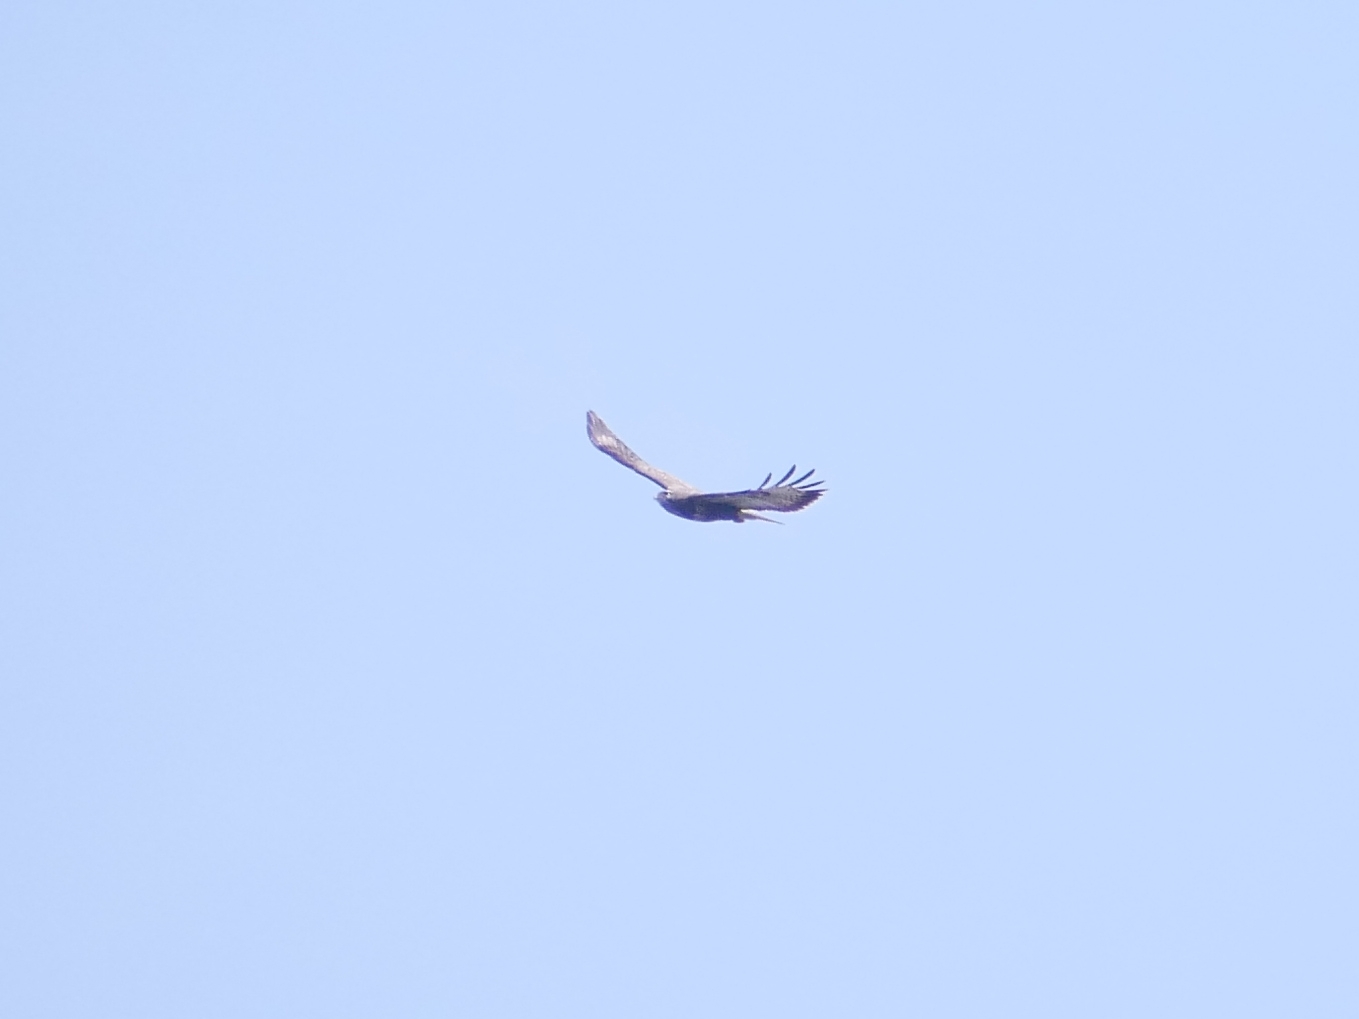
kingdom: Animalia
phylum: Chordata
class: Aves
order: Accipitriformes
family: Accipitridae
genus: Buteo
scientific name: Buteo buteo
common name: Common buzzard
